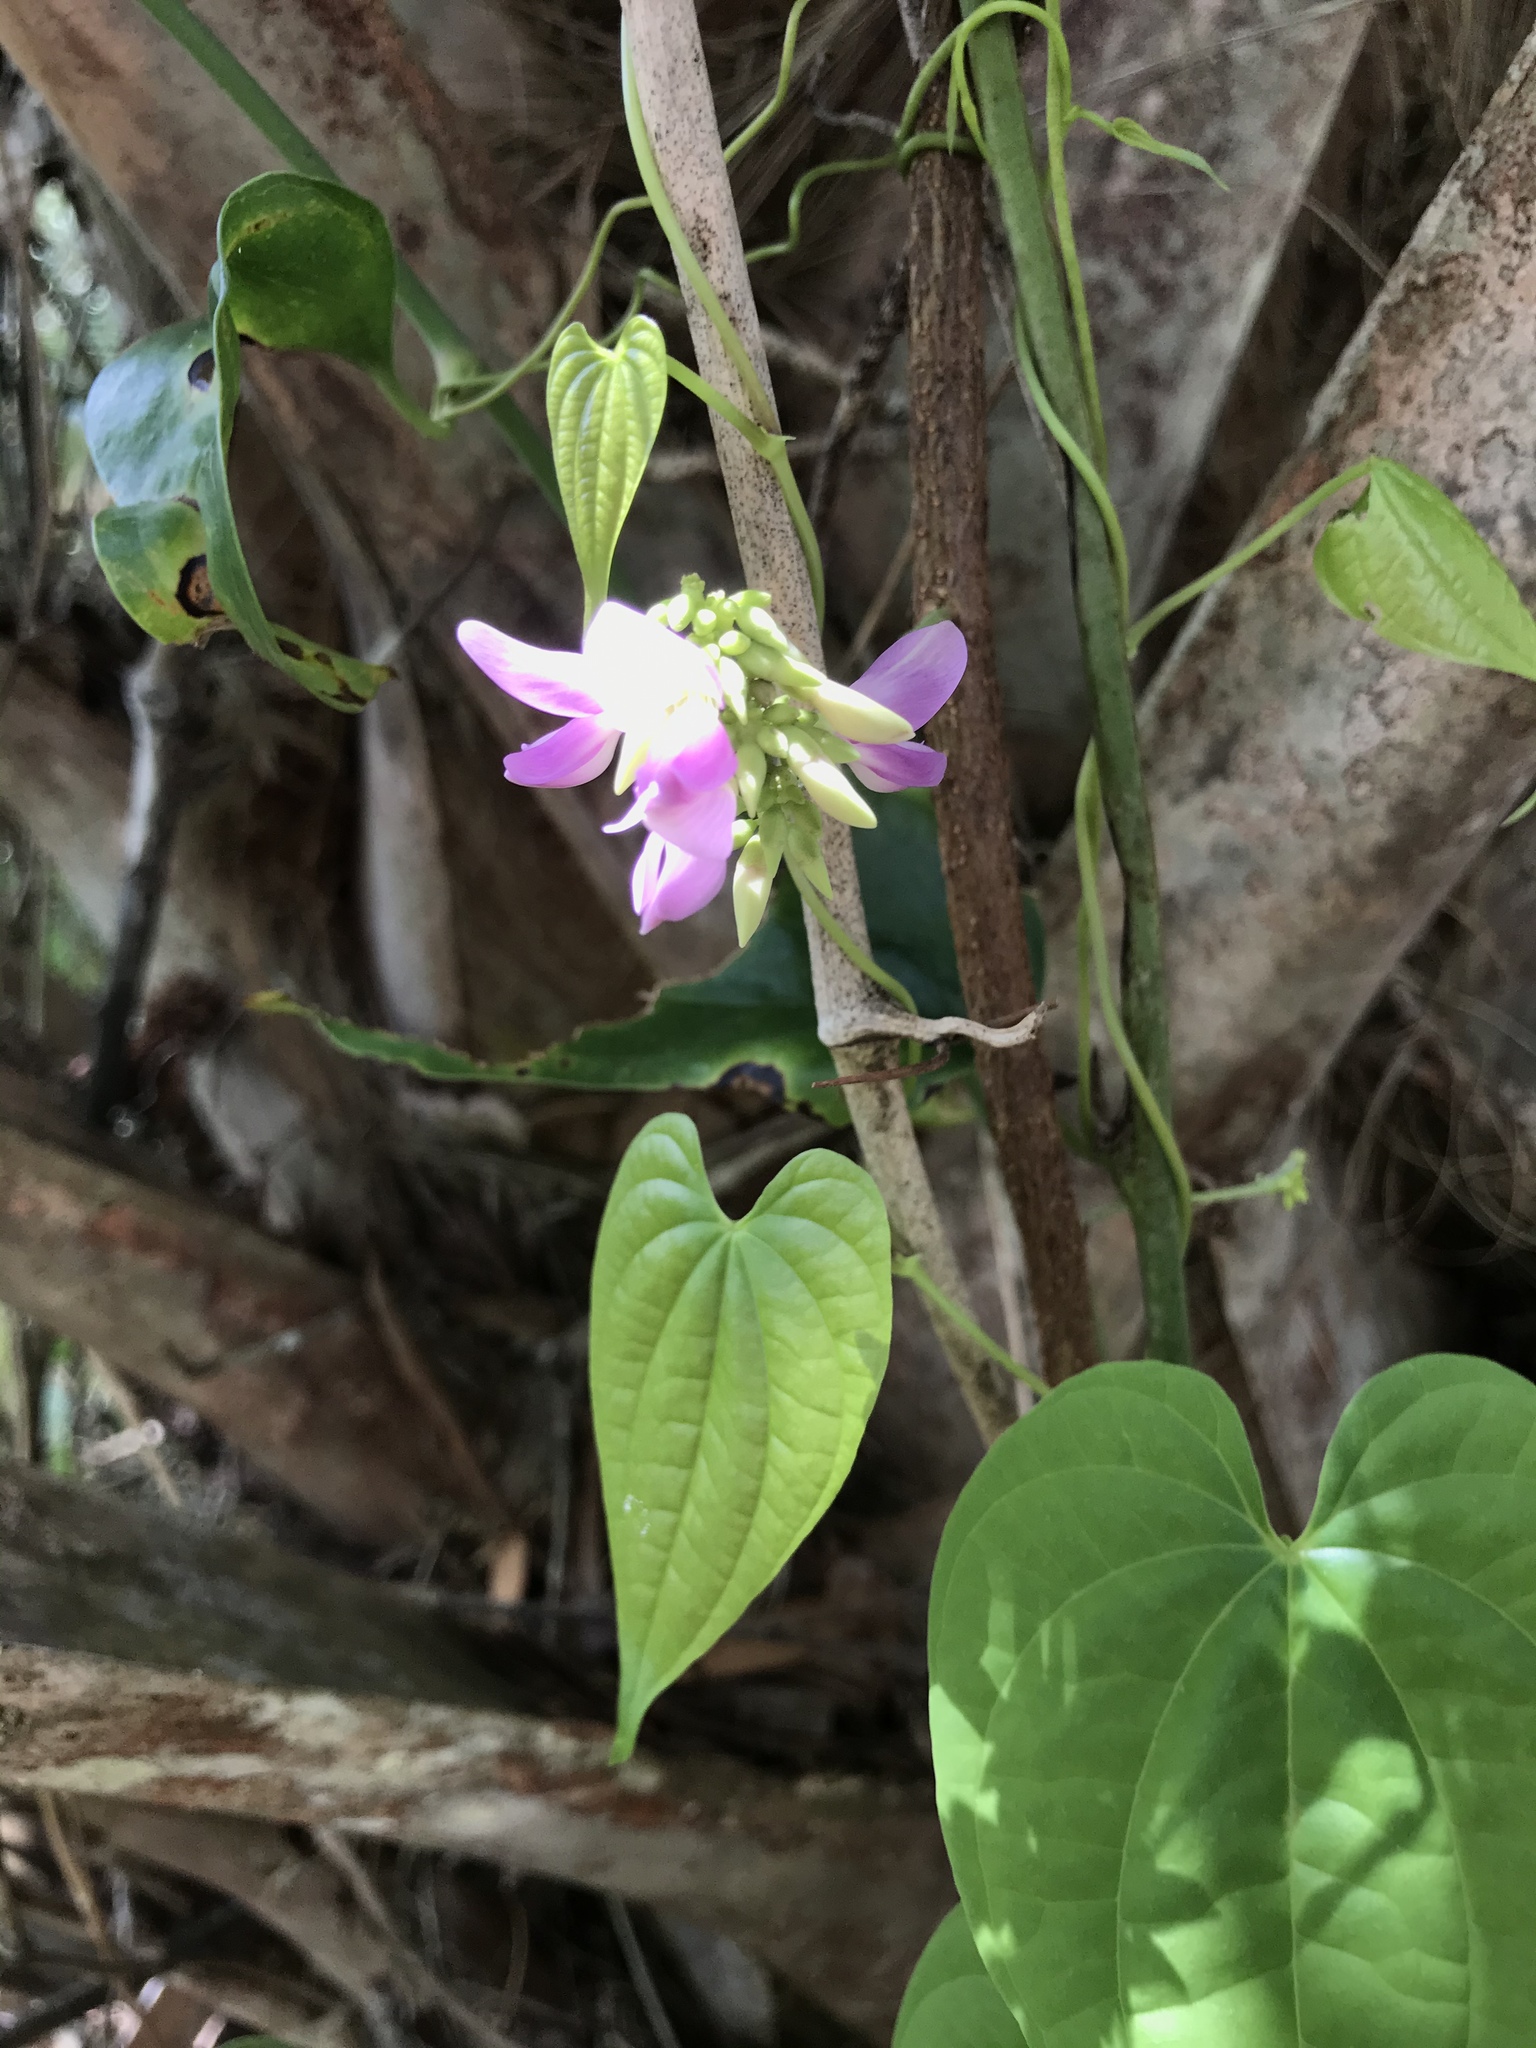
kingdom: Plantae
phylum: Tracheophyta
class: Magnoliopsida
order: Fabales
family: Fabaceae
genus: Abrus
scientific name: Abrus precatorius
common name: Rosarypea
